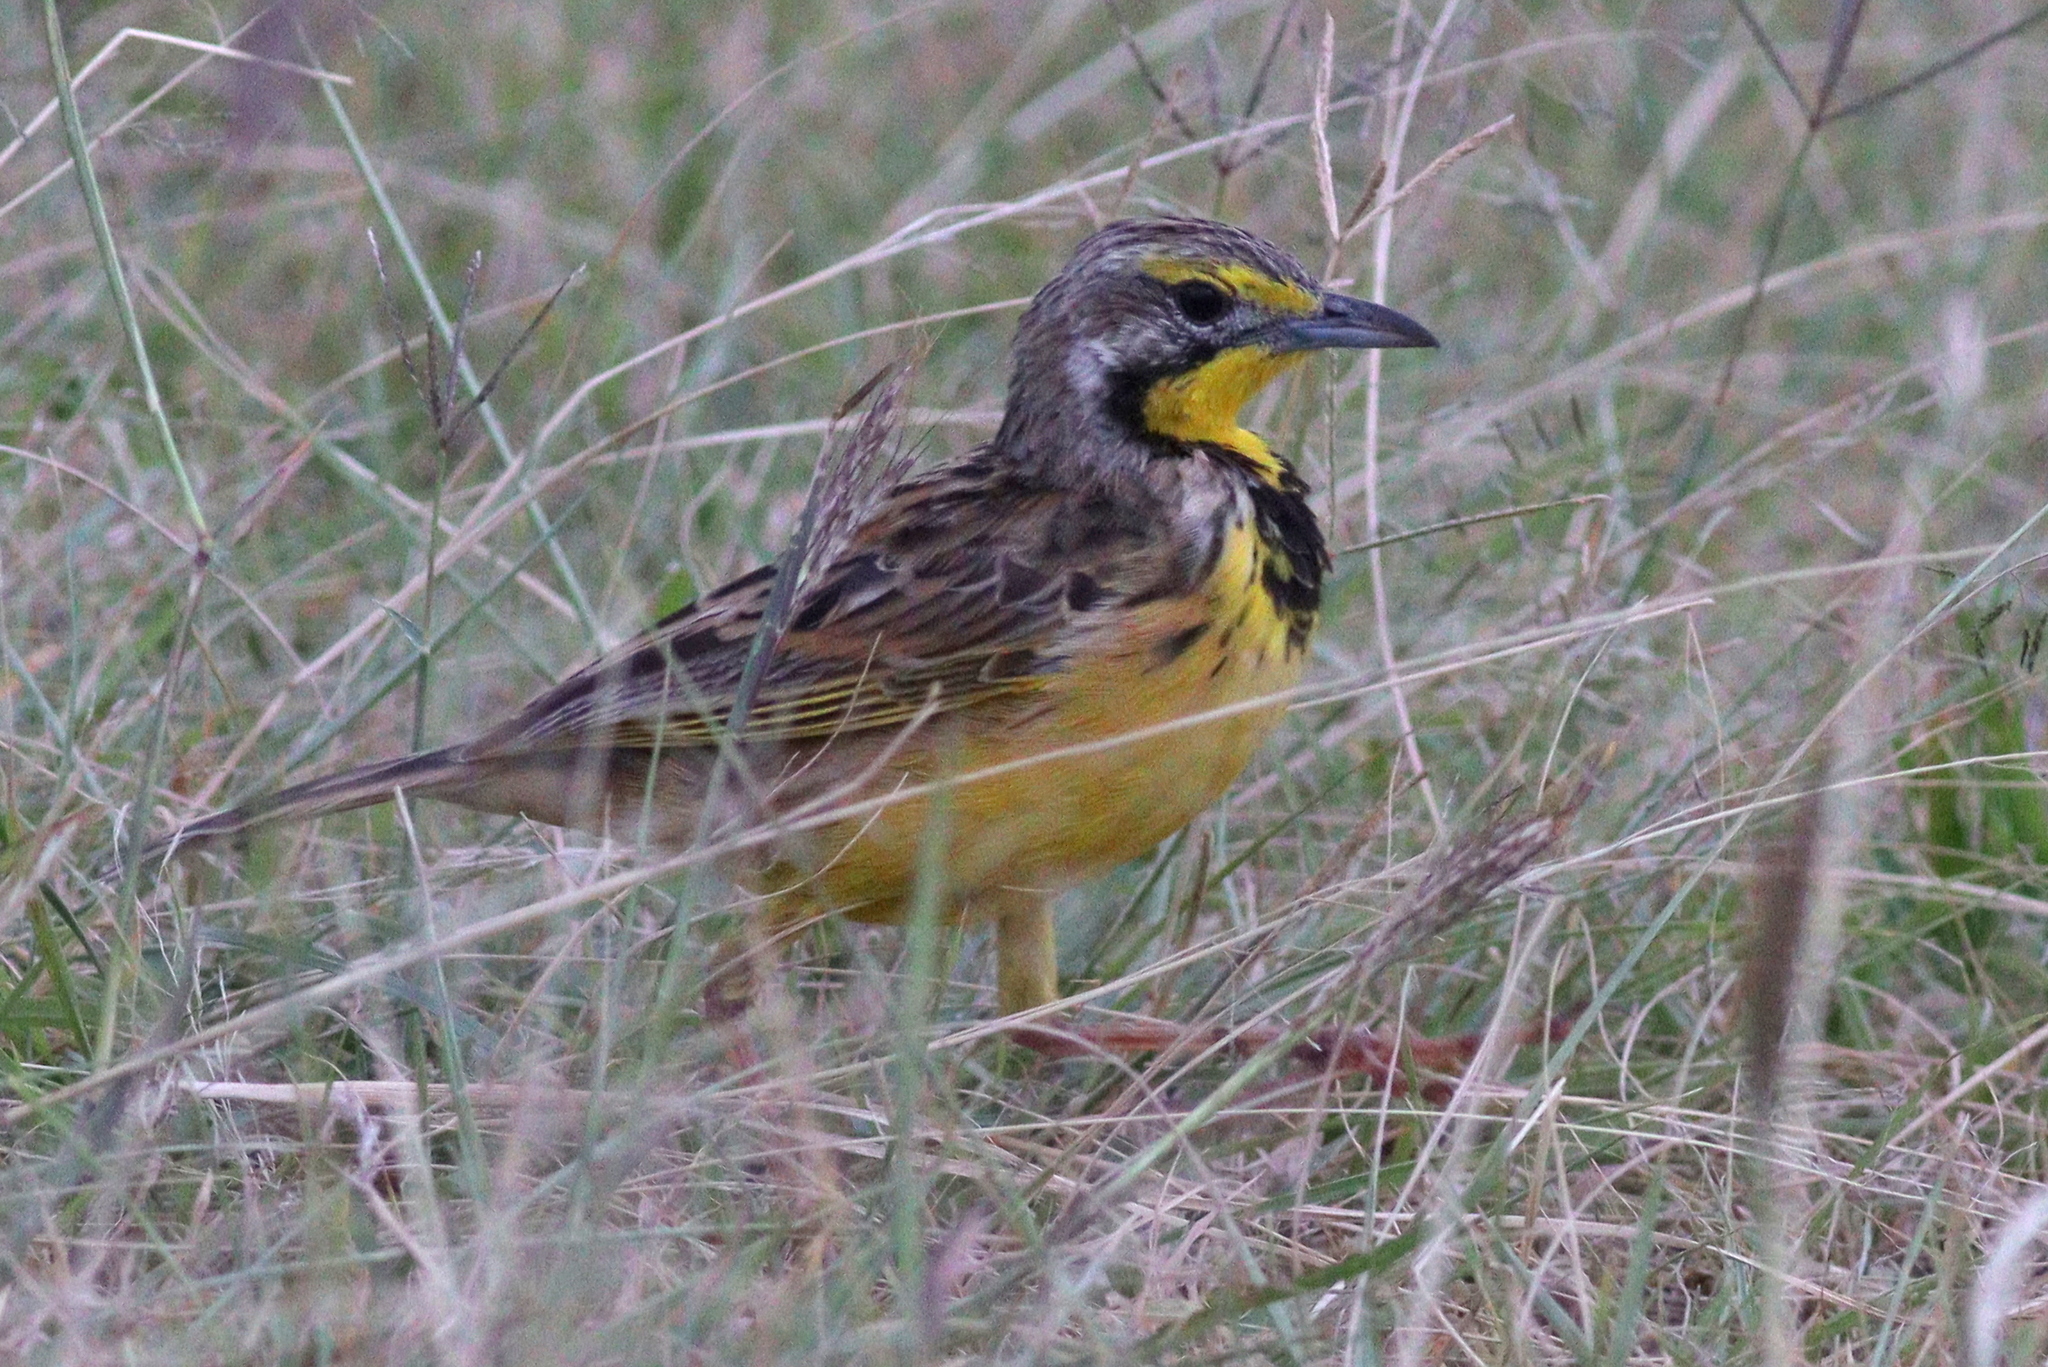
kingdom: Animalia
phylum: Chordata
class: Aves
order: Passeriformes
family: Motacillidae
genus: Macronyx
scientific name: Macronyx croceus
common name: Yellow-throated longclaw
